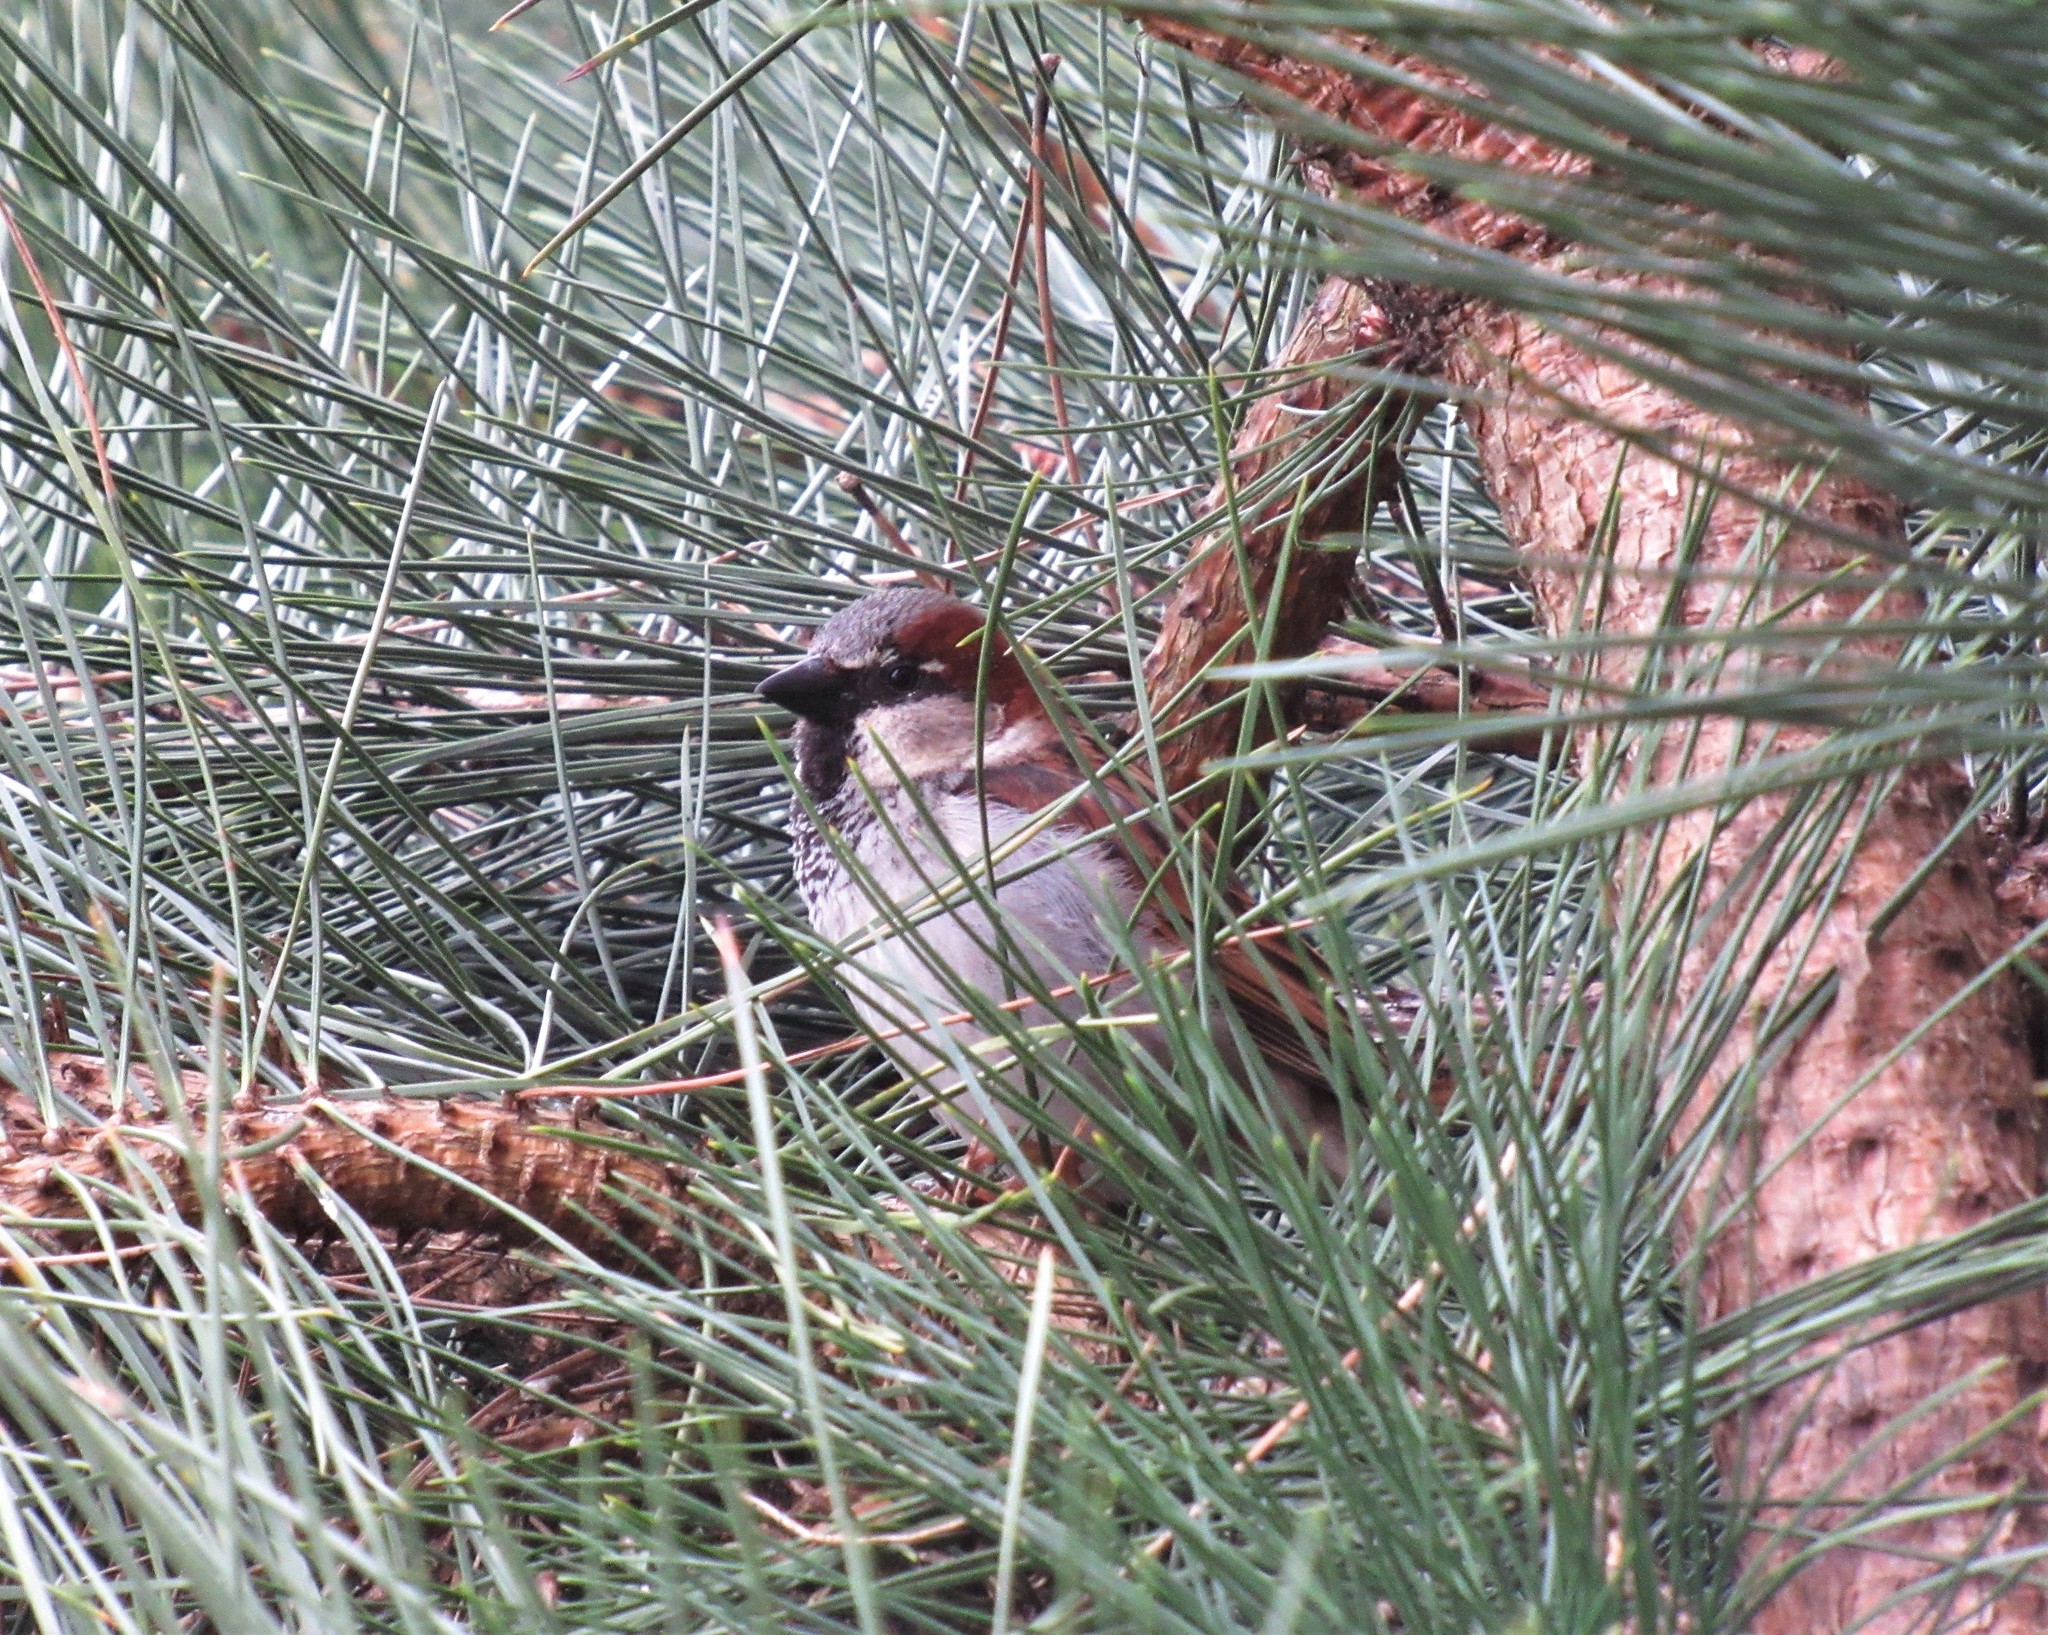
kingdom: Animalia
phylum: Chordata
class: Aves
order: Passeriformes
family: Passeridae
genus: Passer
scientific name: Passer domesticus
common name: House sparrow
